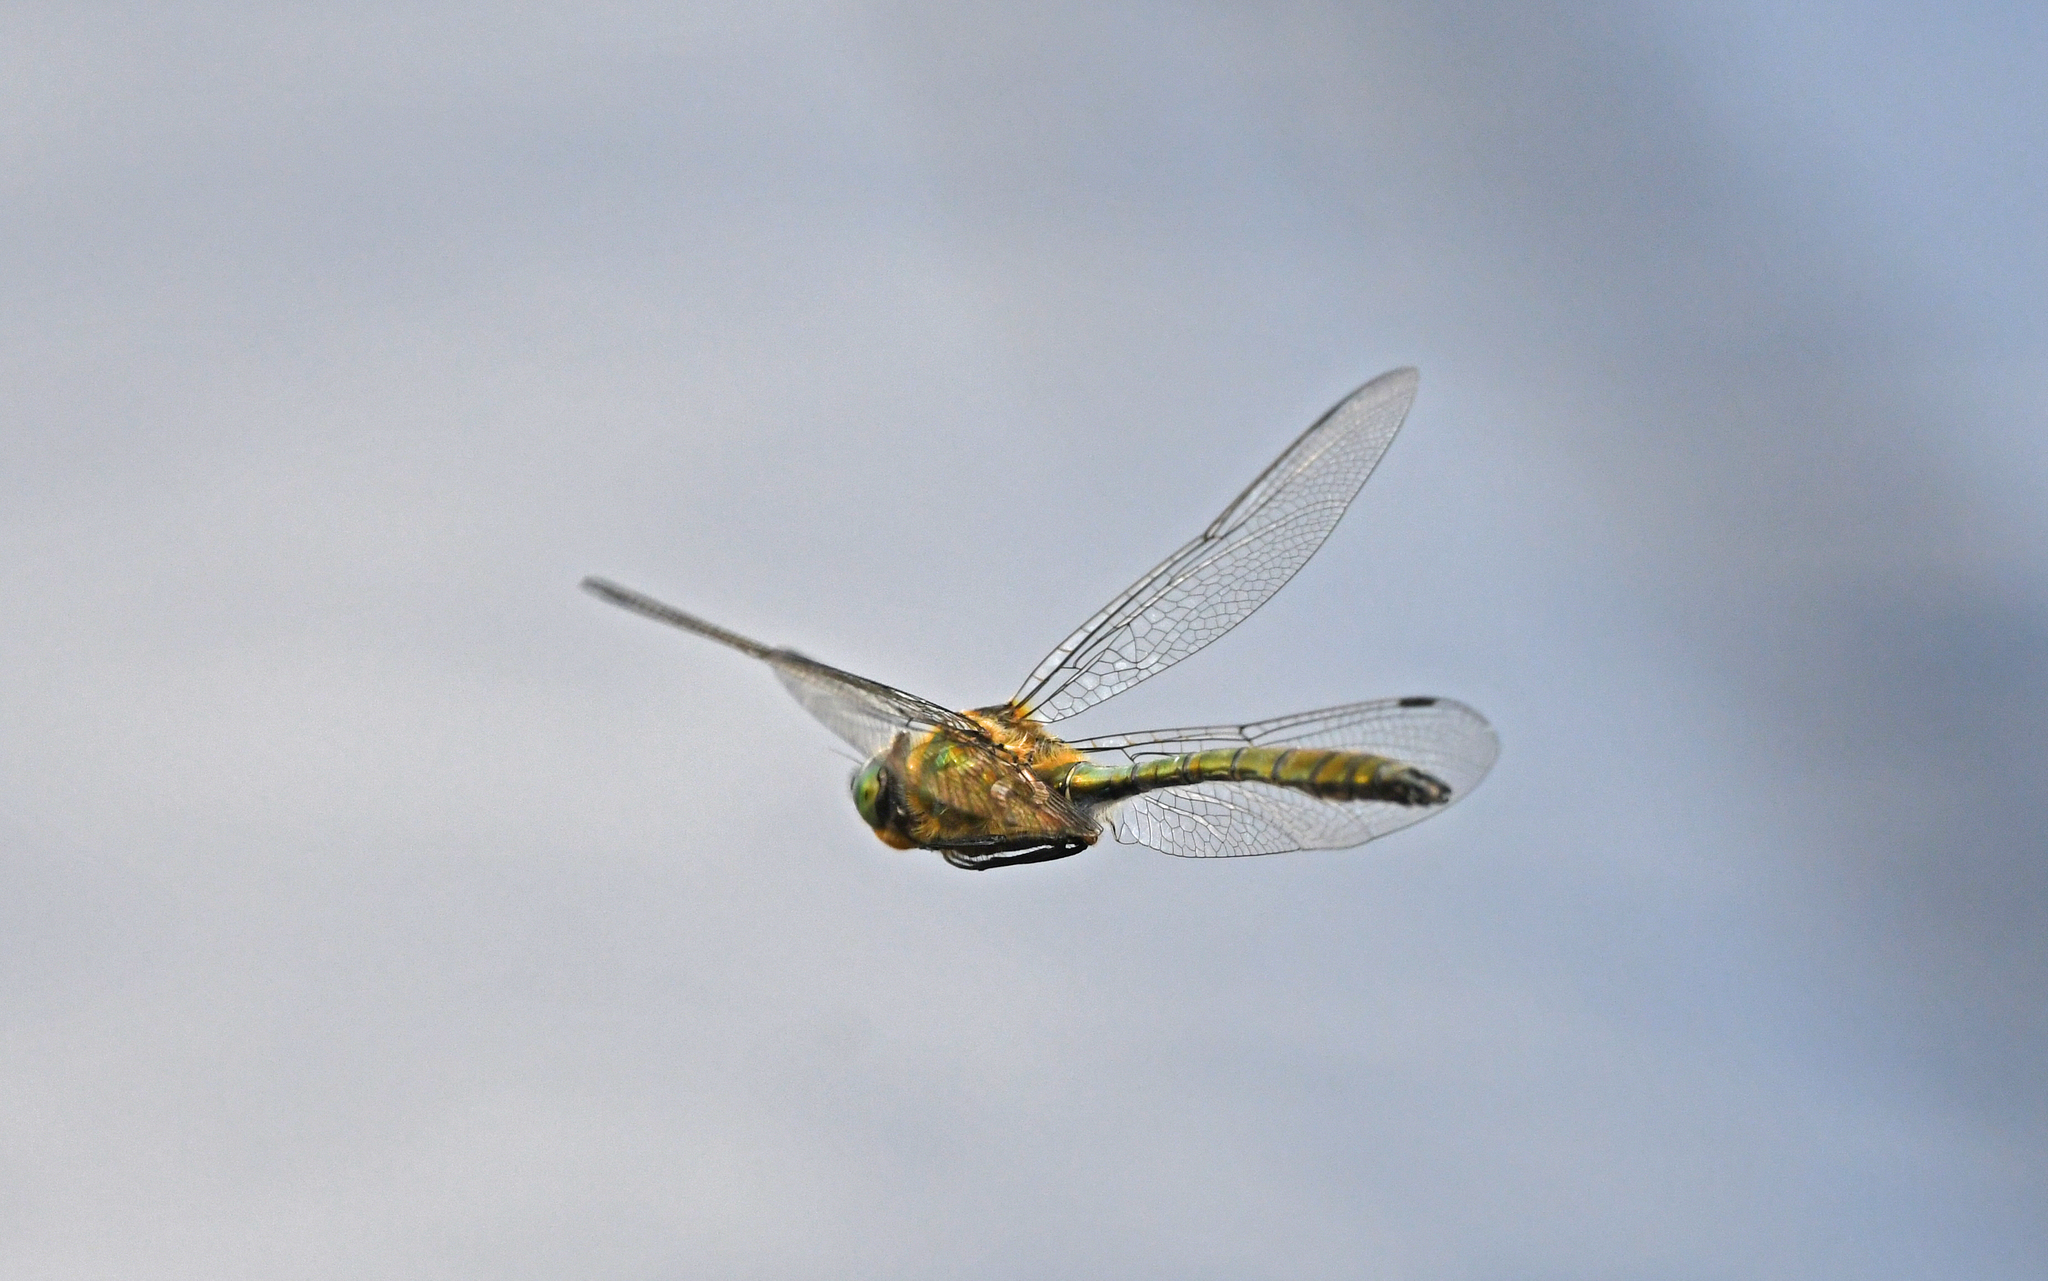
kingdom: Animalia
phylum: Arthropoda
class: Insecta
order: Odonata
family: Corduliidae
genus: Cordulia
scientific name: Cordulia aenea
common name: Downy emerald
